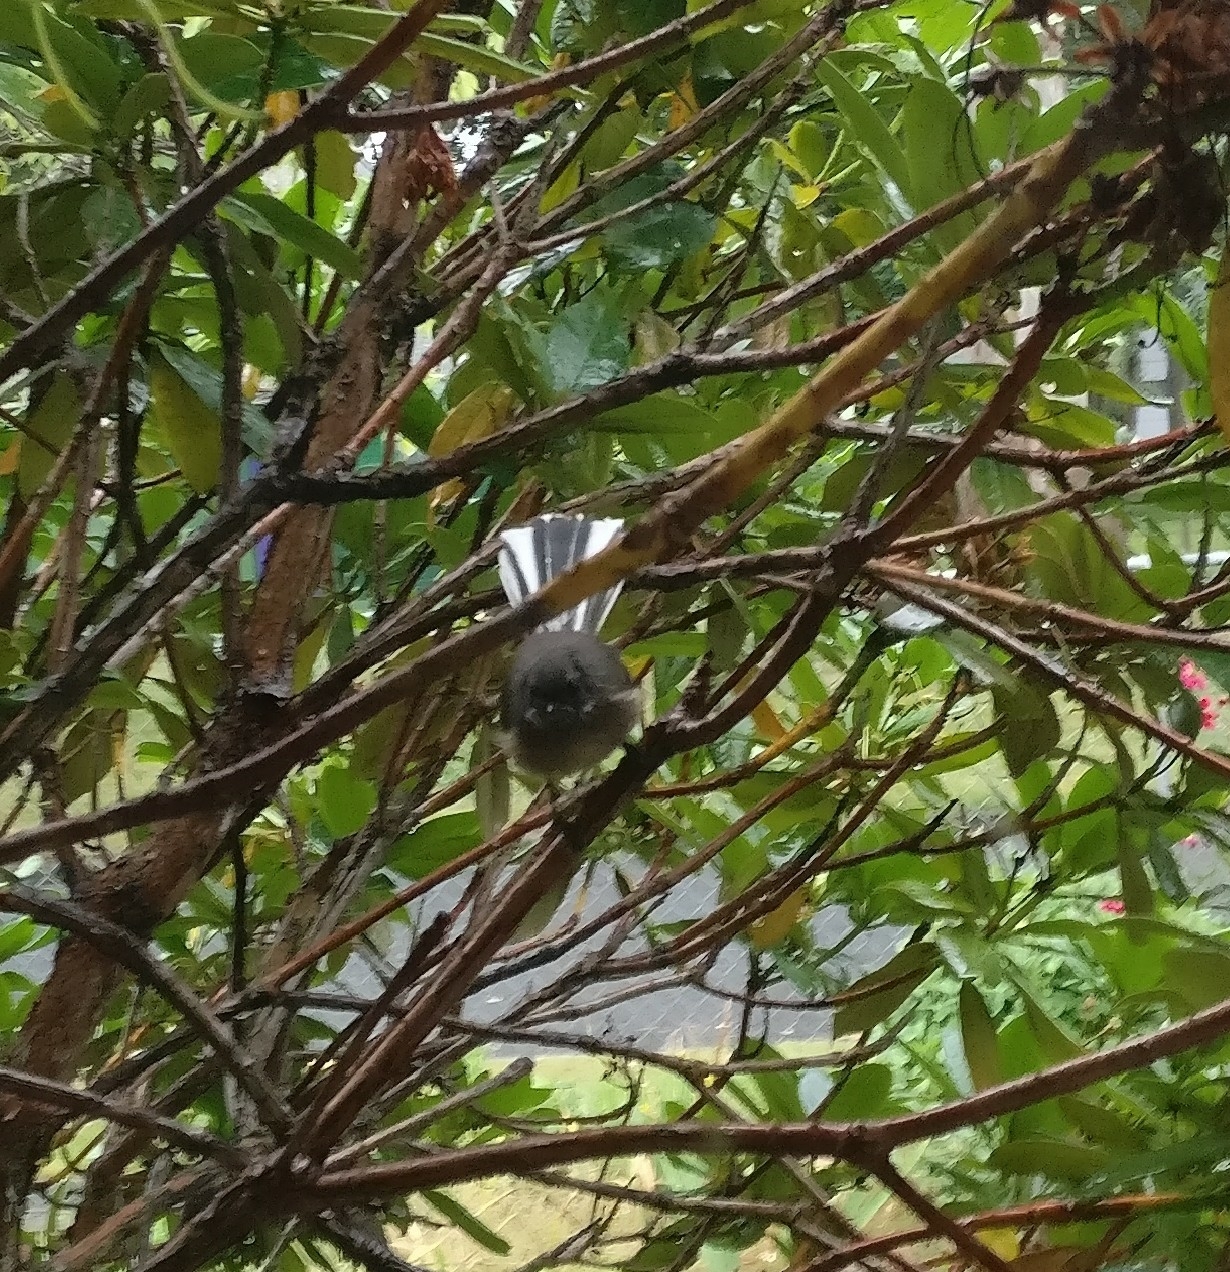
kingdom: Animalia
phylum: Chordata
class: Aves
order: Passeriformes
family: Rhipiduridae
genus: Rhipidura
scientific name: Rhipidura fuliginosa
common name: New zealand fantail
